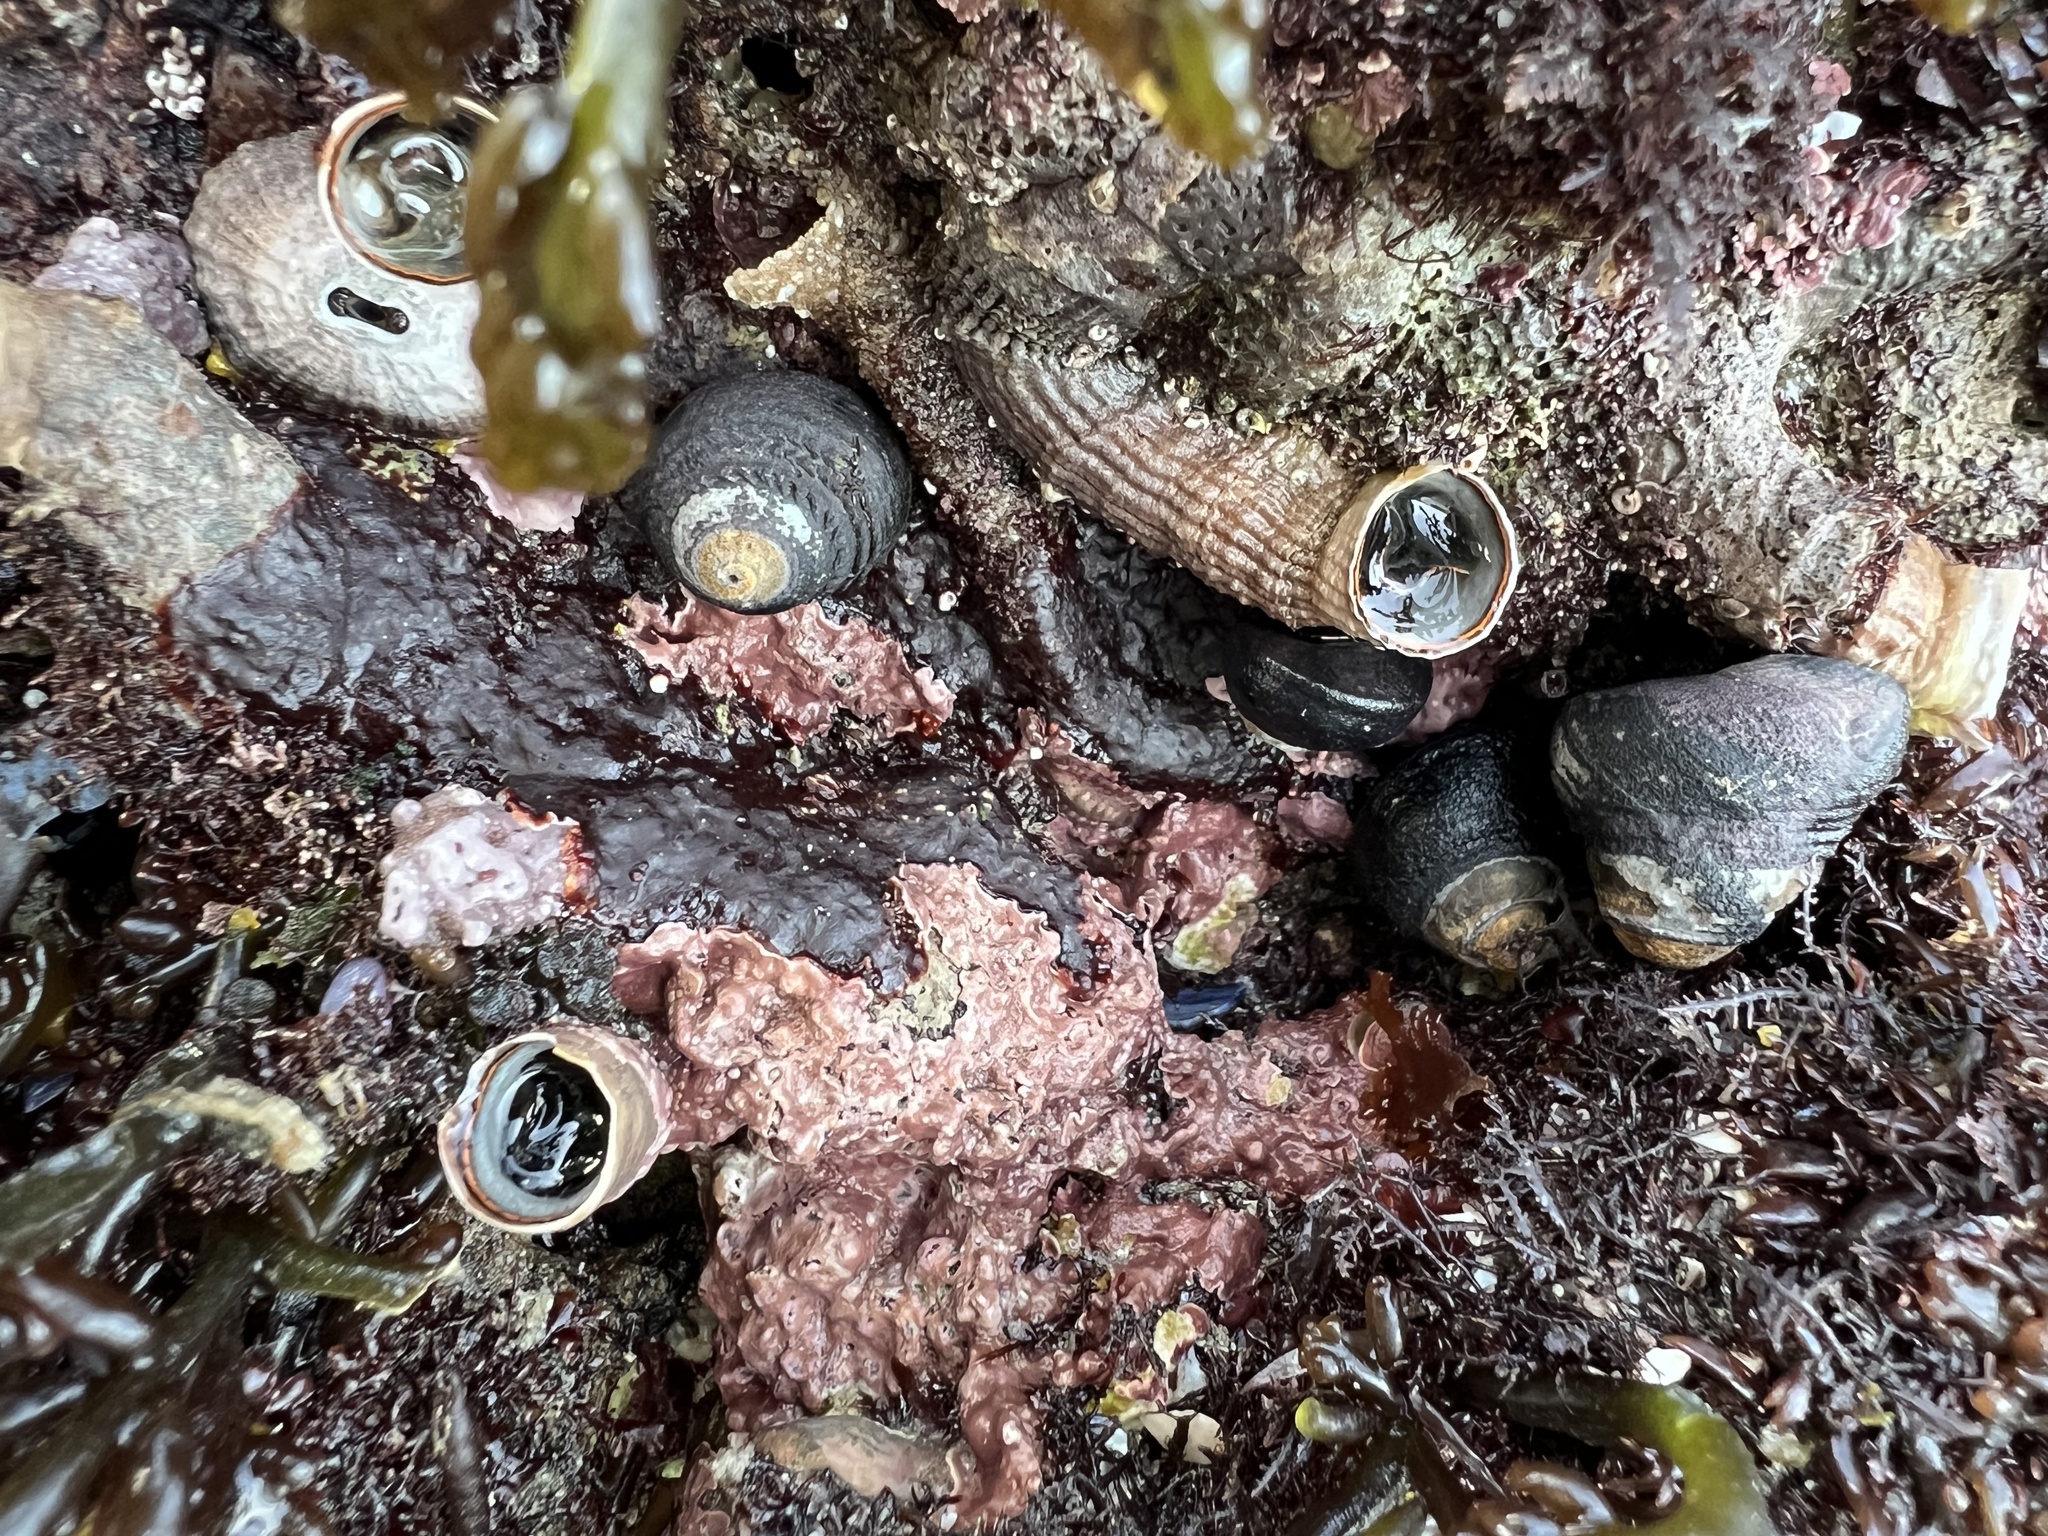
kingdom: Animalia
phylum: Mollusca
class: Gastropoda
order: Littorinimorpha
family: Vermetidae
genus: Thylacodes
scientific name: Thylacodes squamigerus
